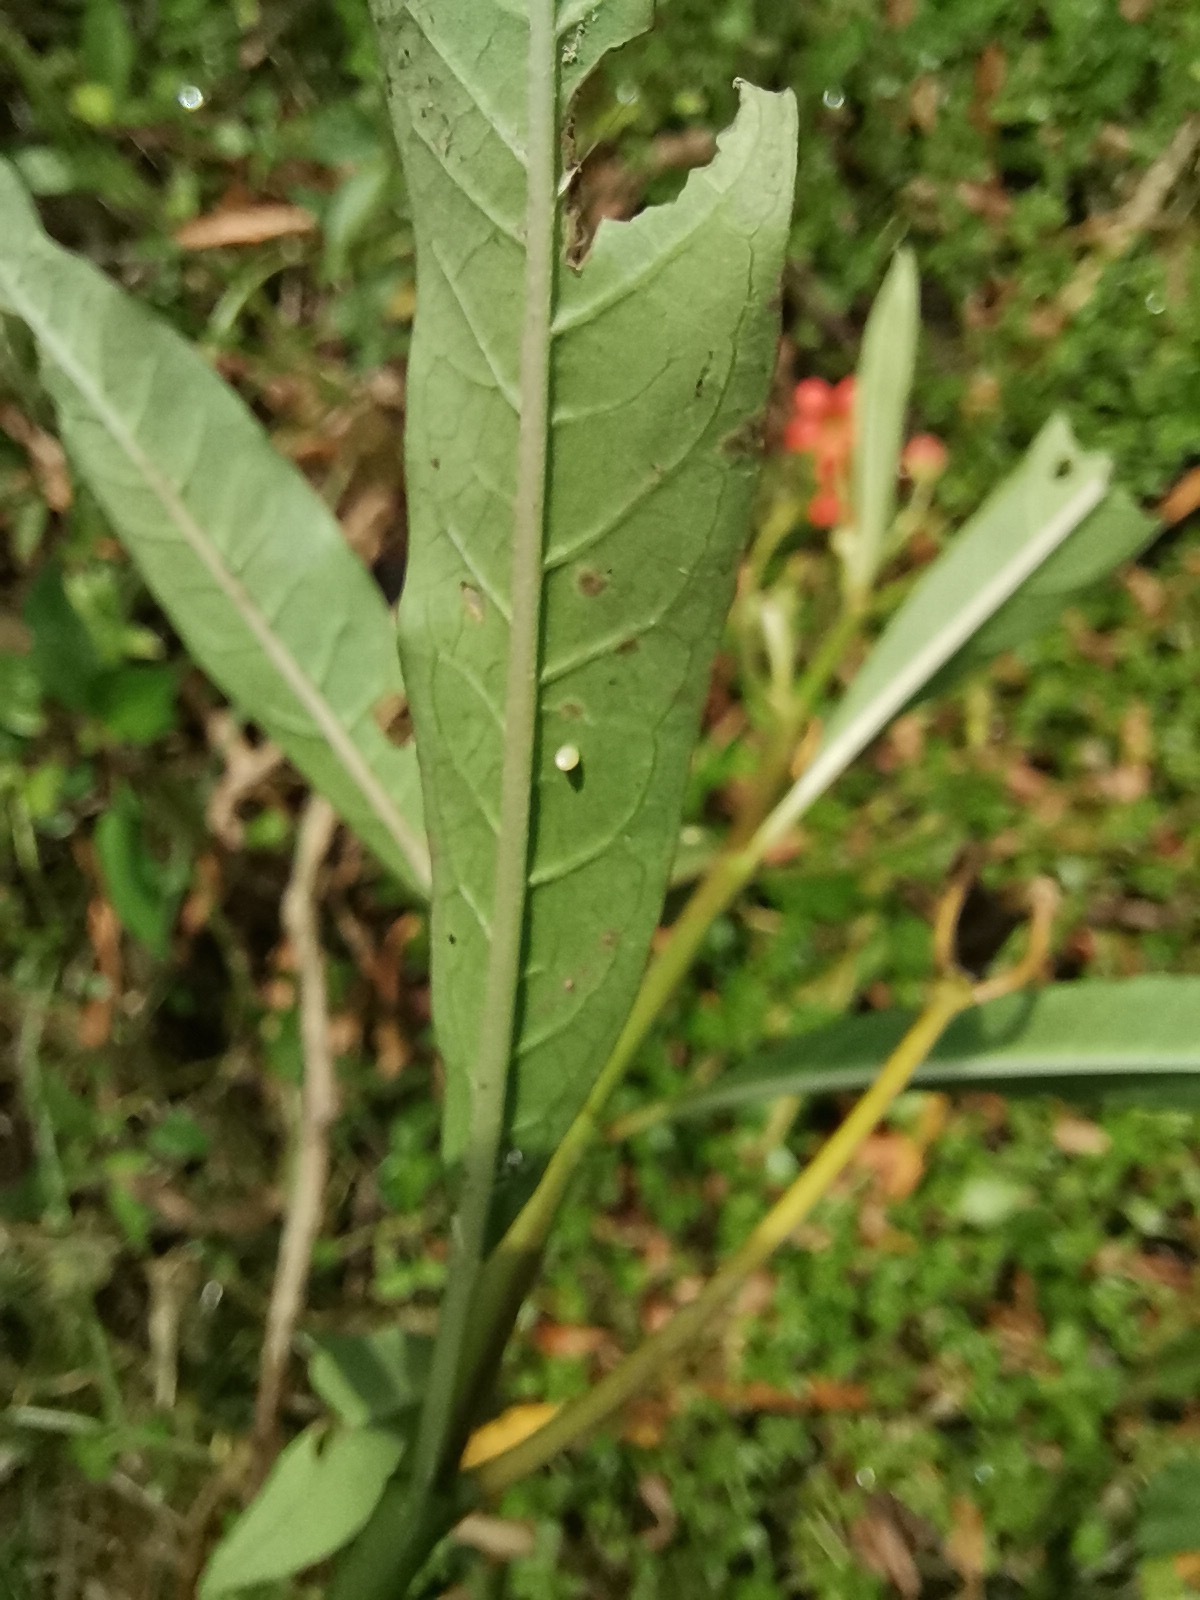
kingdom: Animalia
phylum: Arthropoda
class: Insecta
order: Lepidoptera
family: Nymphalidae
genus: Danaus
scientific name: Danaus plexippus
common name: Monarch
